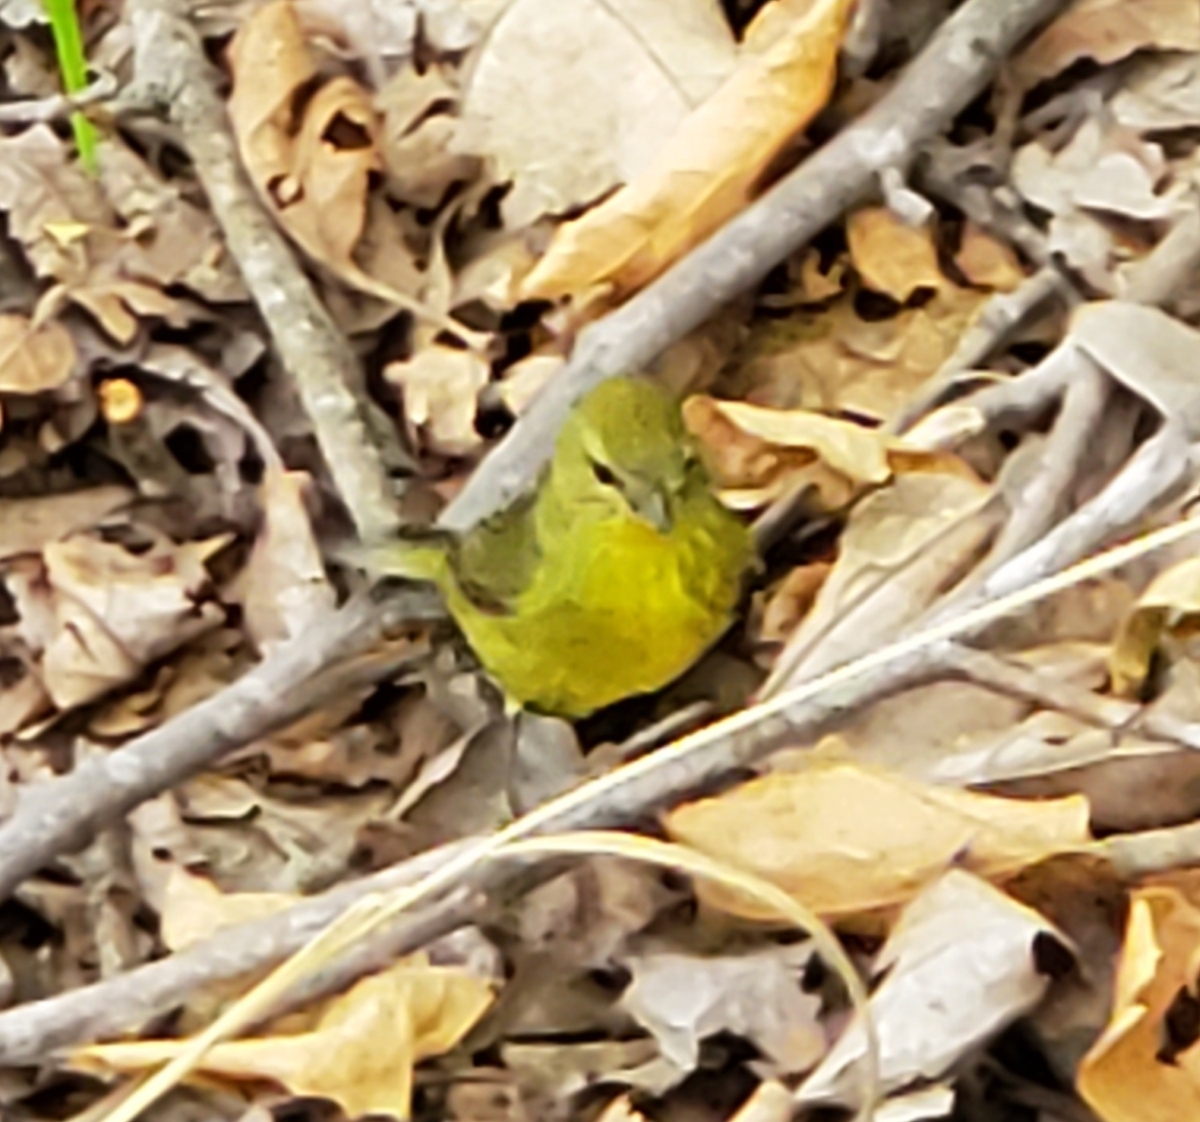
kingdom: Animalia
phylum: Chordata
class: Aves
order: Passeriformes
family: Parulidae
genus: Leiothlypis
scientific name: Leiothlypis celata
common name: Orange-crowned warbler
